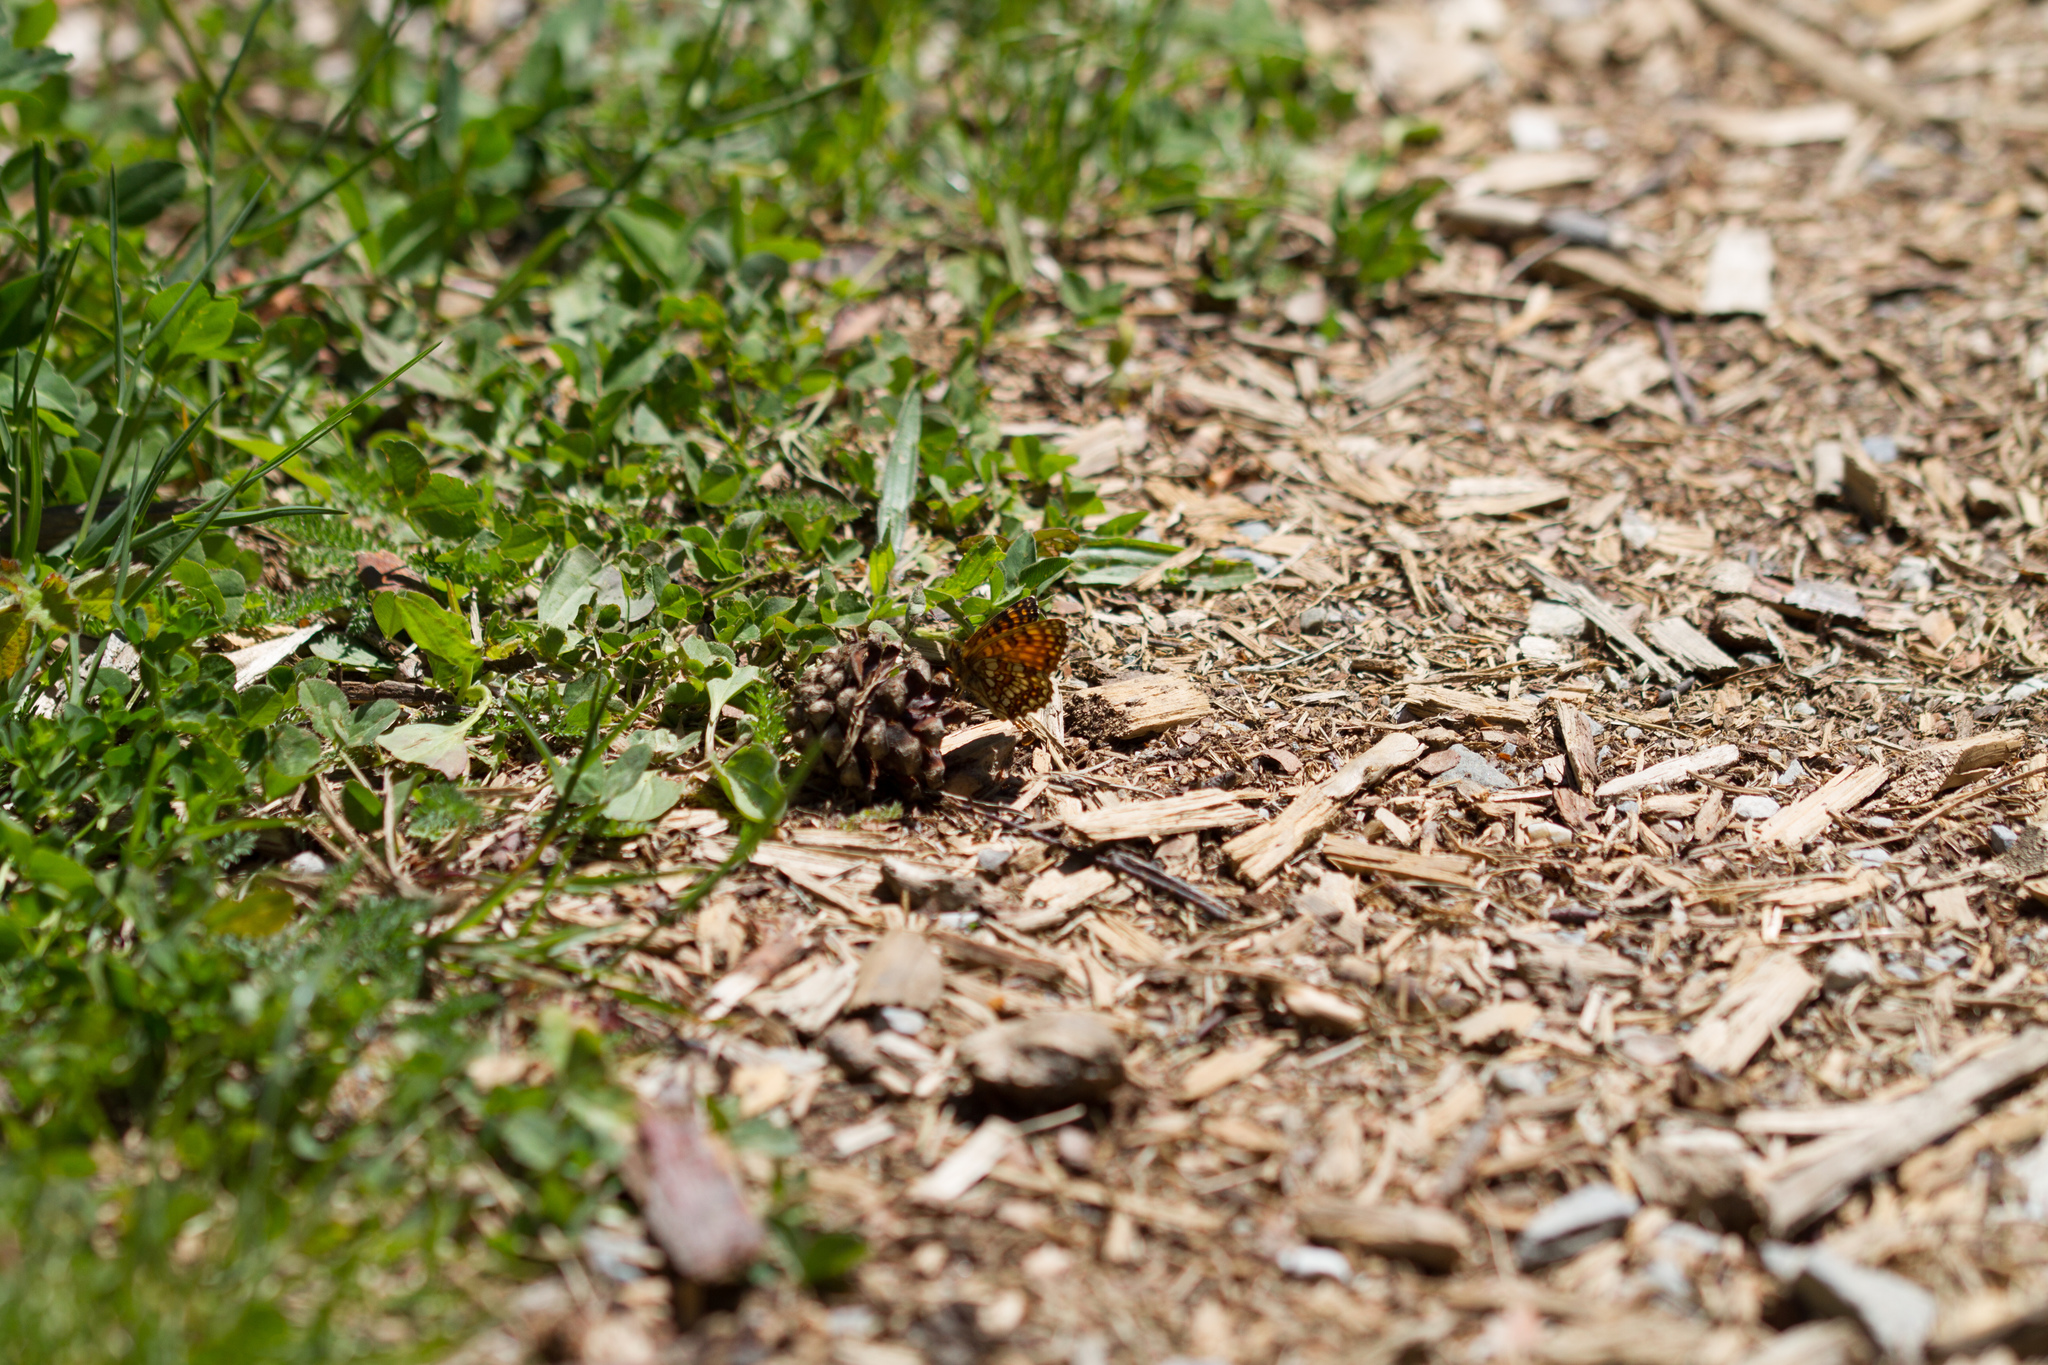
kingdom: Animalia
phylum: Arthropoda
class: Insecta
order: Lepidoptera
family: Nymphalidae
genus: Melitaea
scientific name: Melitaea diamina
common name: False heath fritillary
